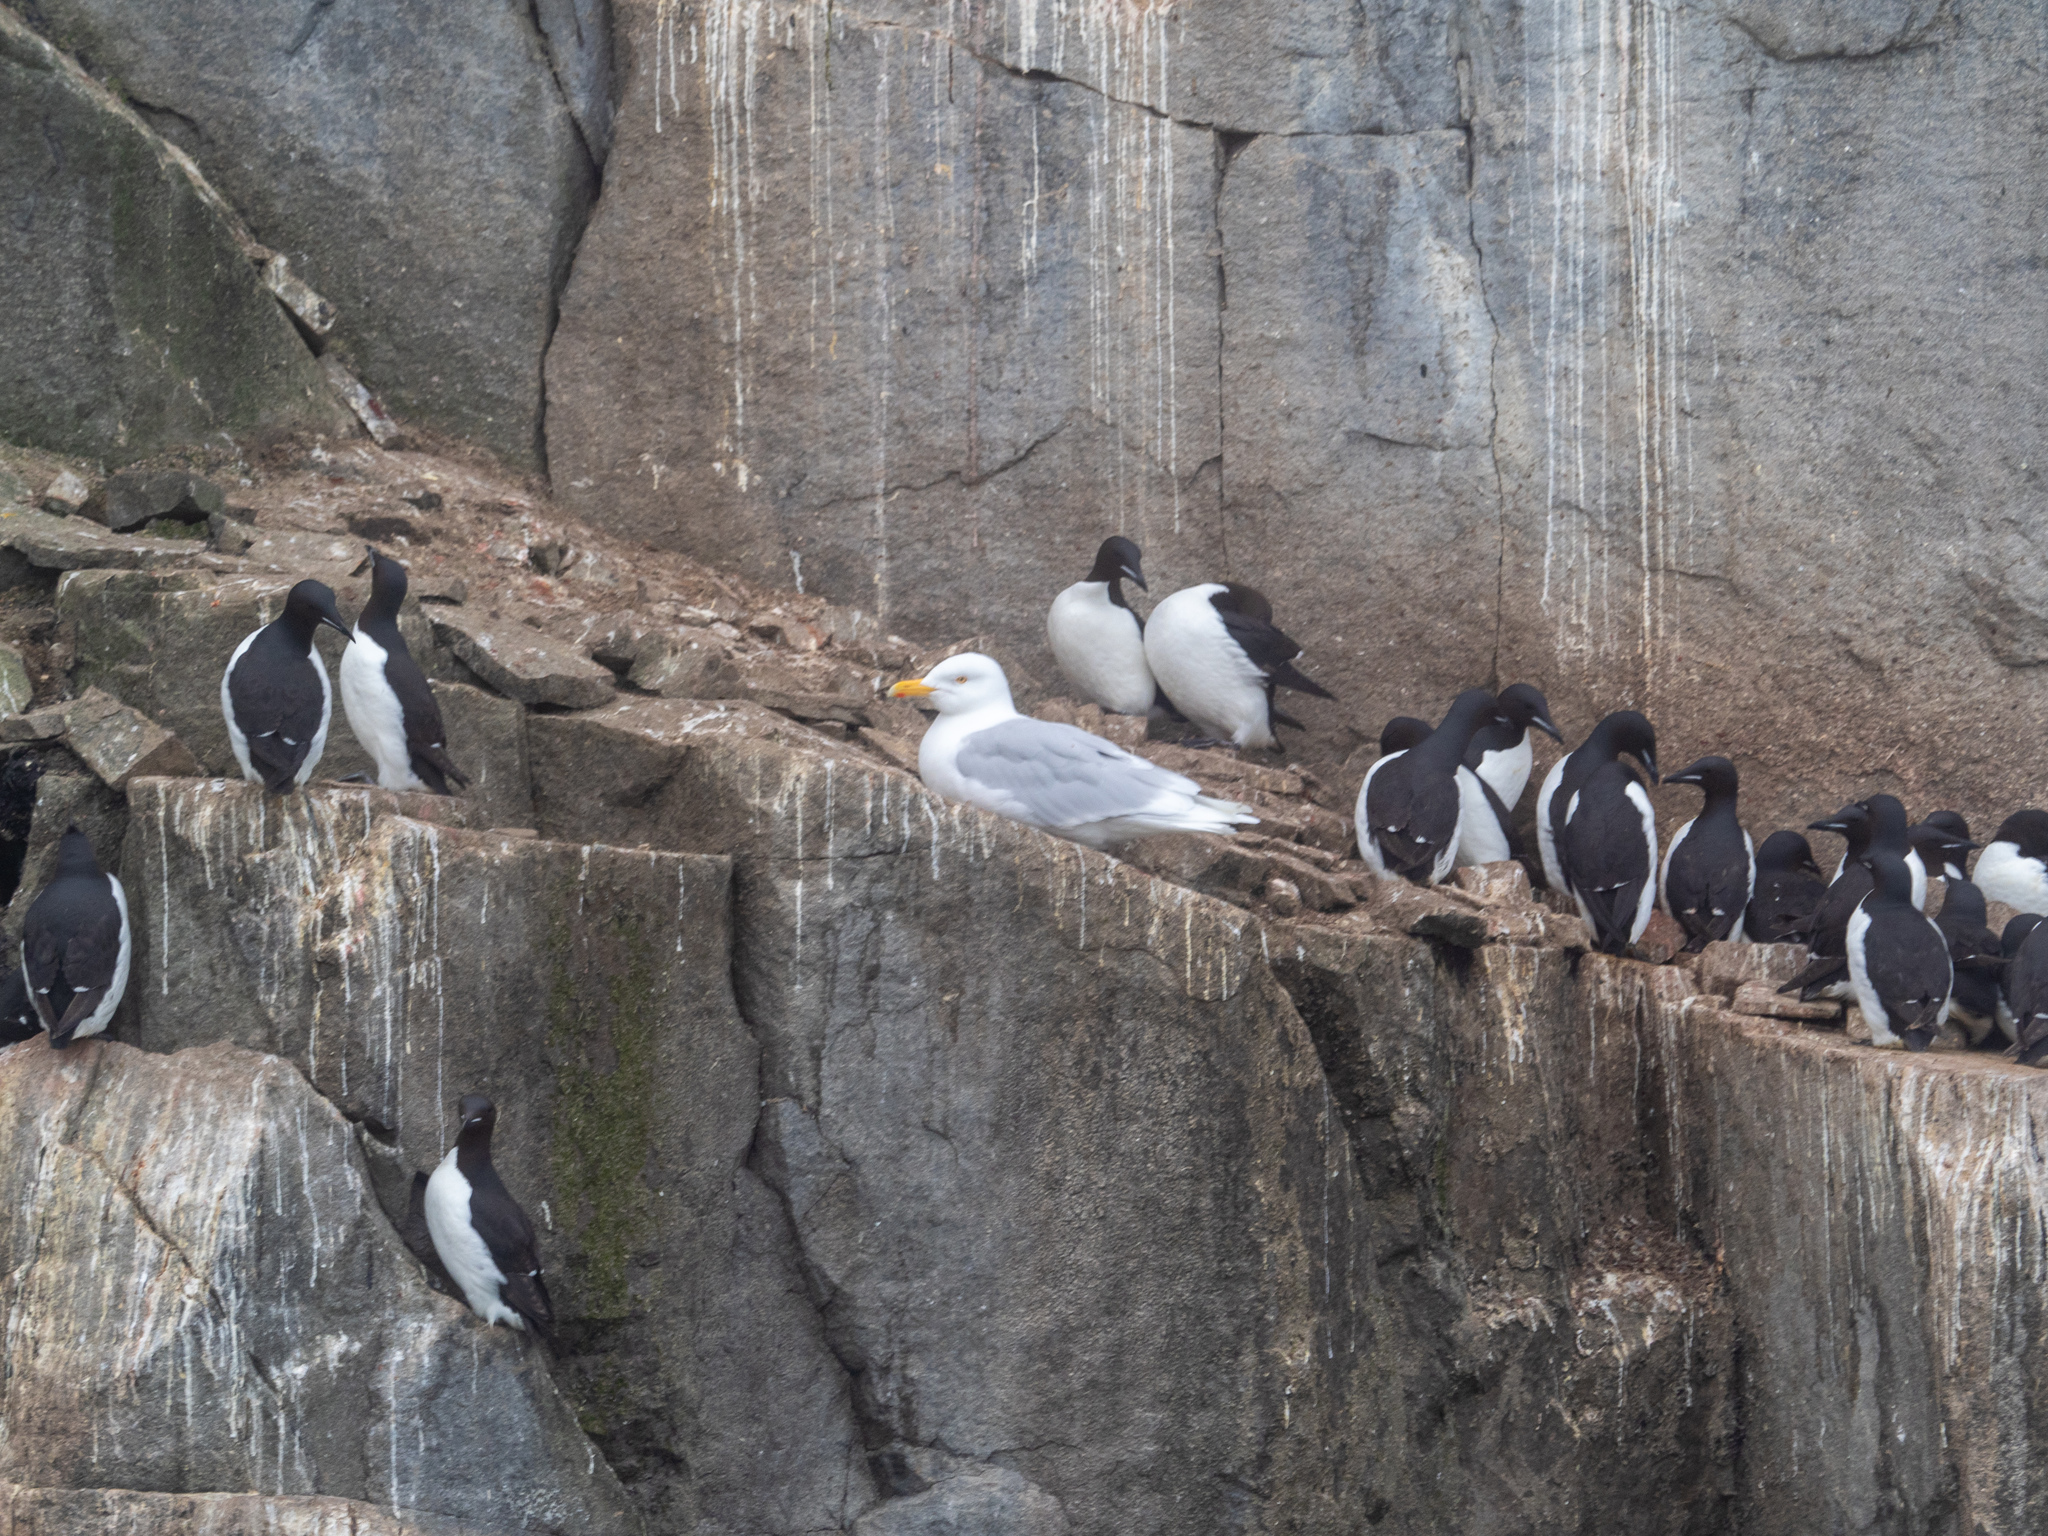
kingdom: Animalia
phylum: Chordata
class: Aves
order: Charadriiformes
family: Laridae
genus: Larus
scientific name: Larus hyperboreus
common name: Glaucous gull
